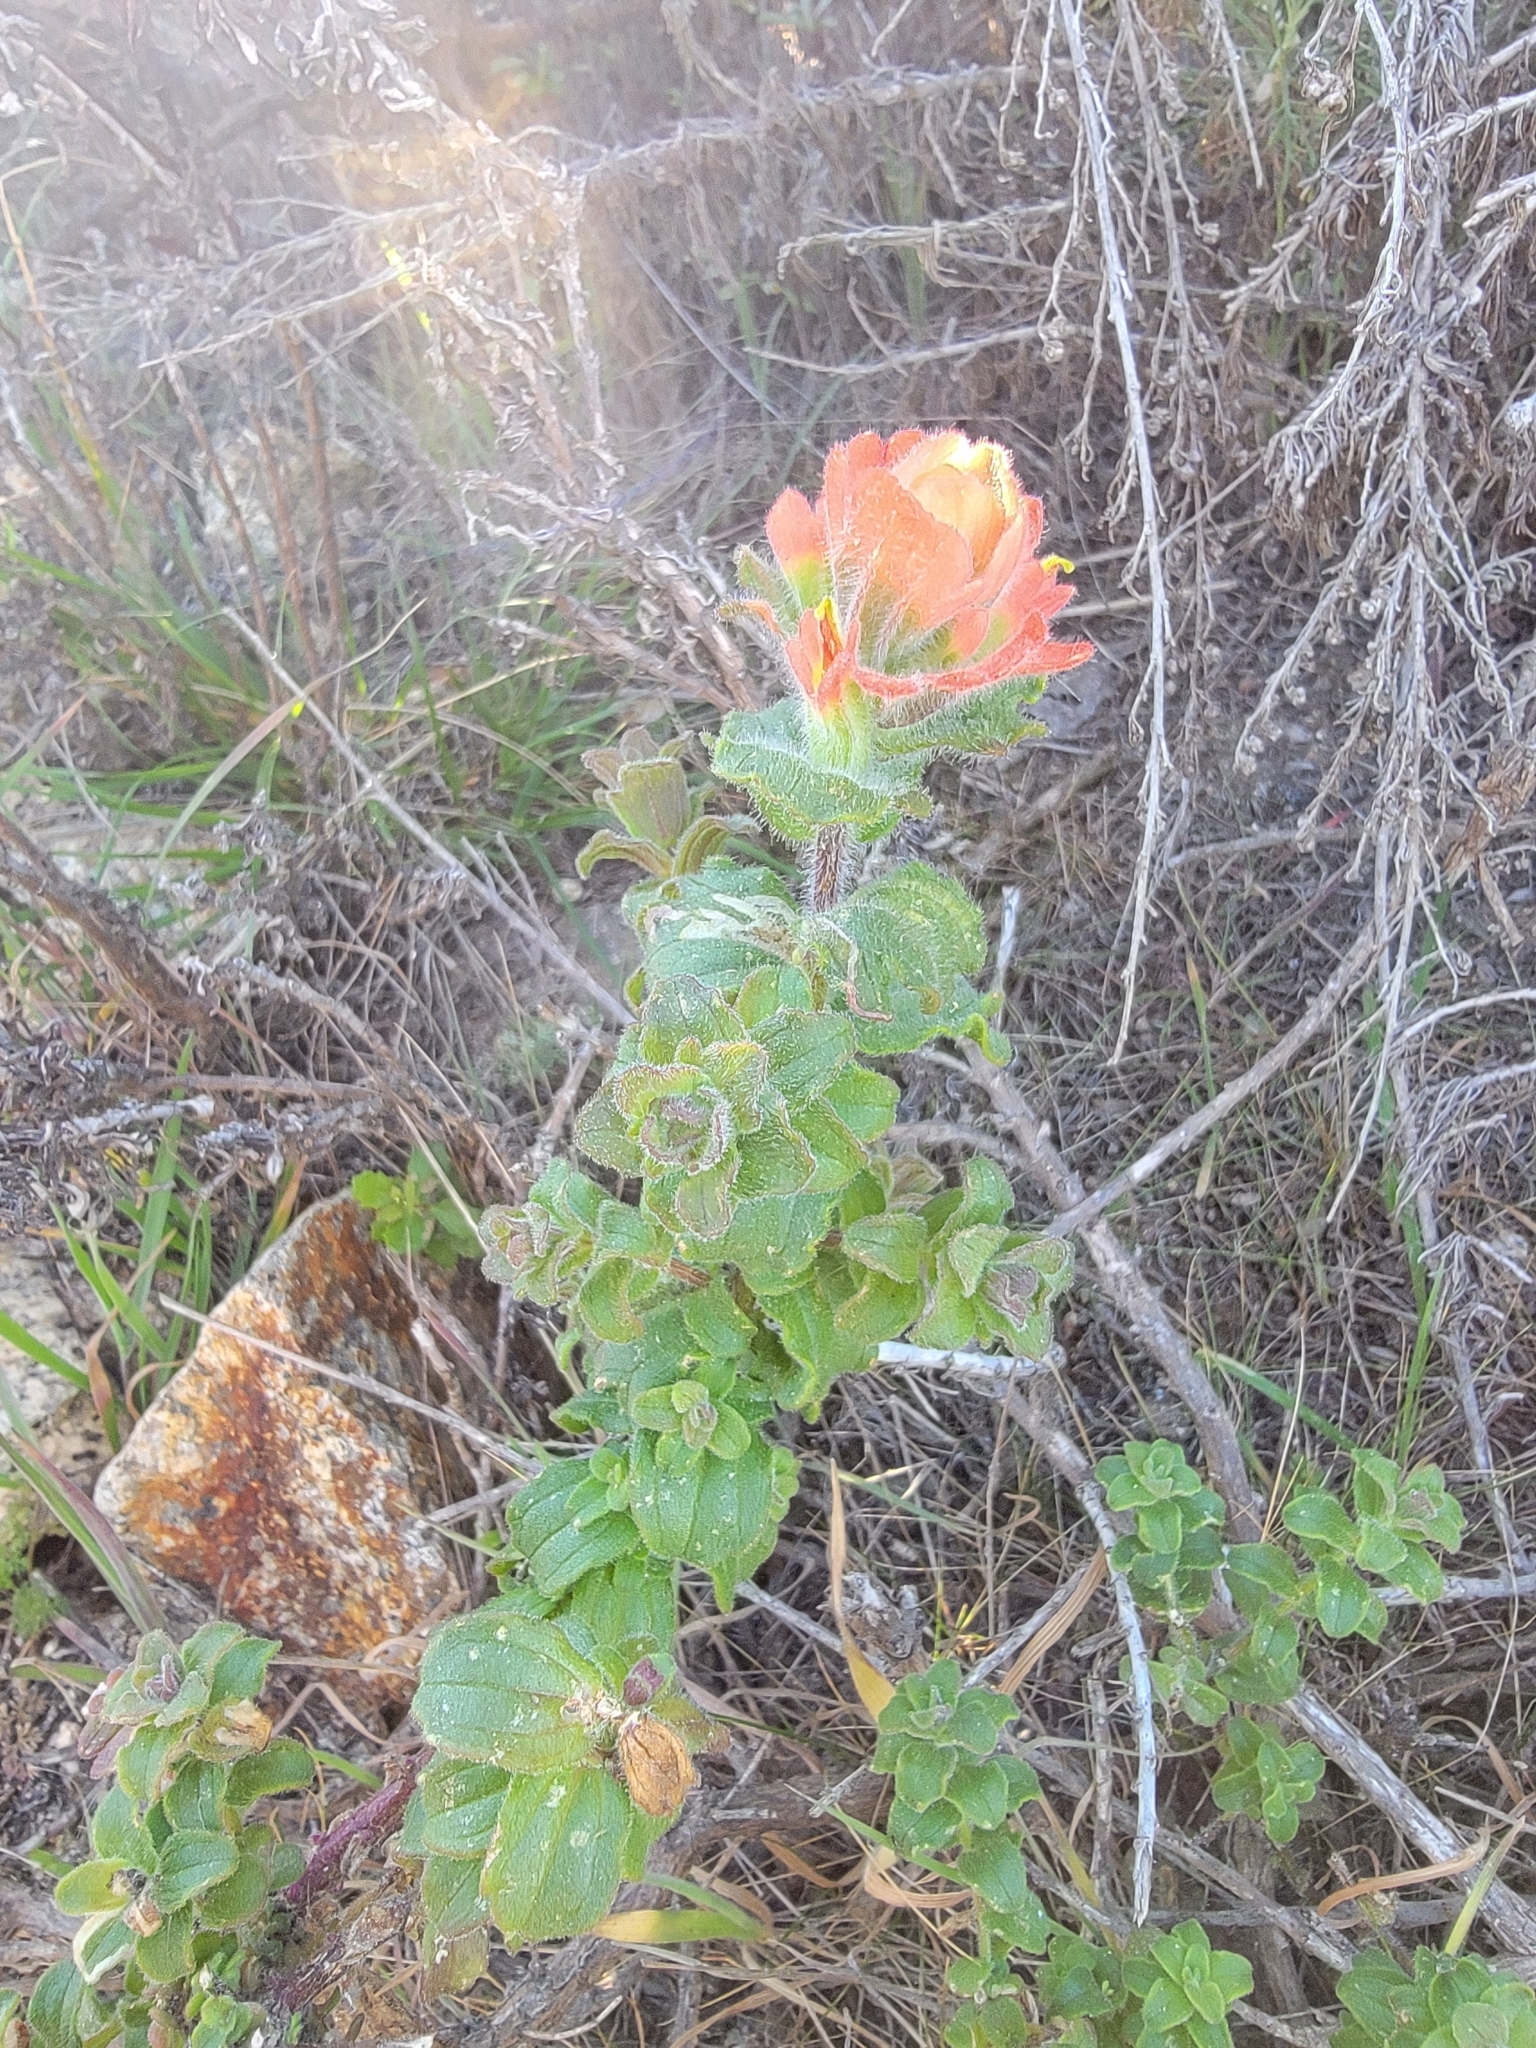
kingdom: Plantae
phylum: Tracheophyta
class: Magnoliopsida
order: Lamiales
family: Orobanchaceae
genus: Castilleja
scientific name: Castilleja latifolia
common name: Monterey indian paintbrush
